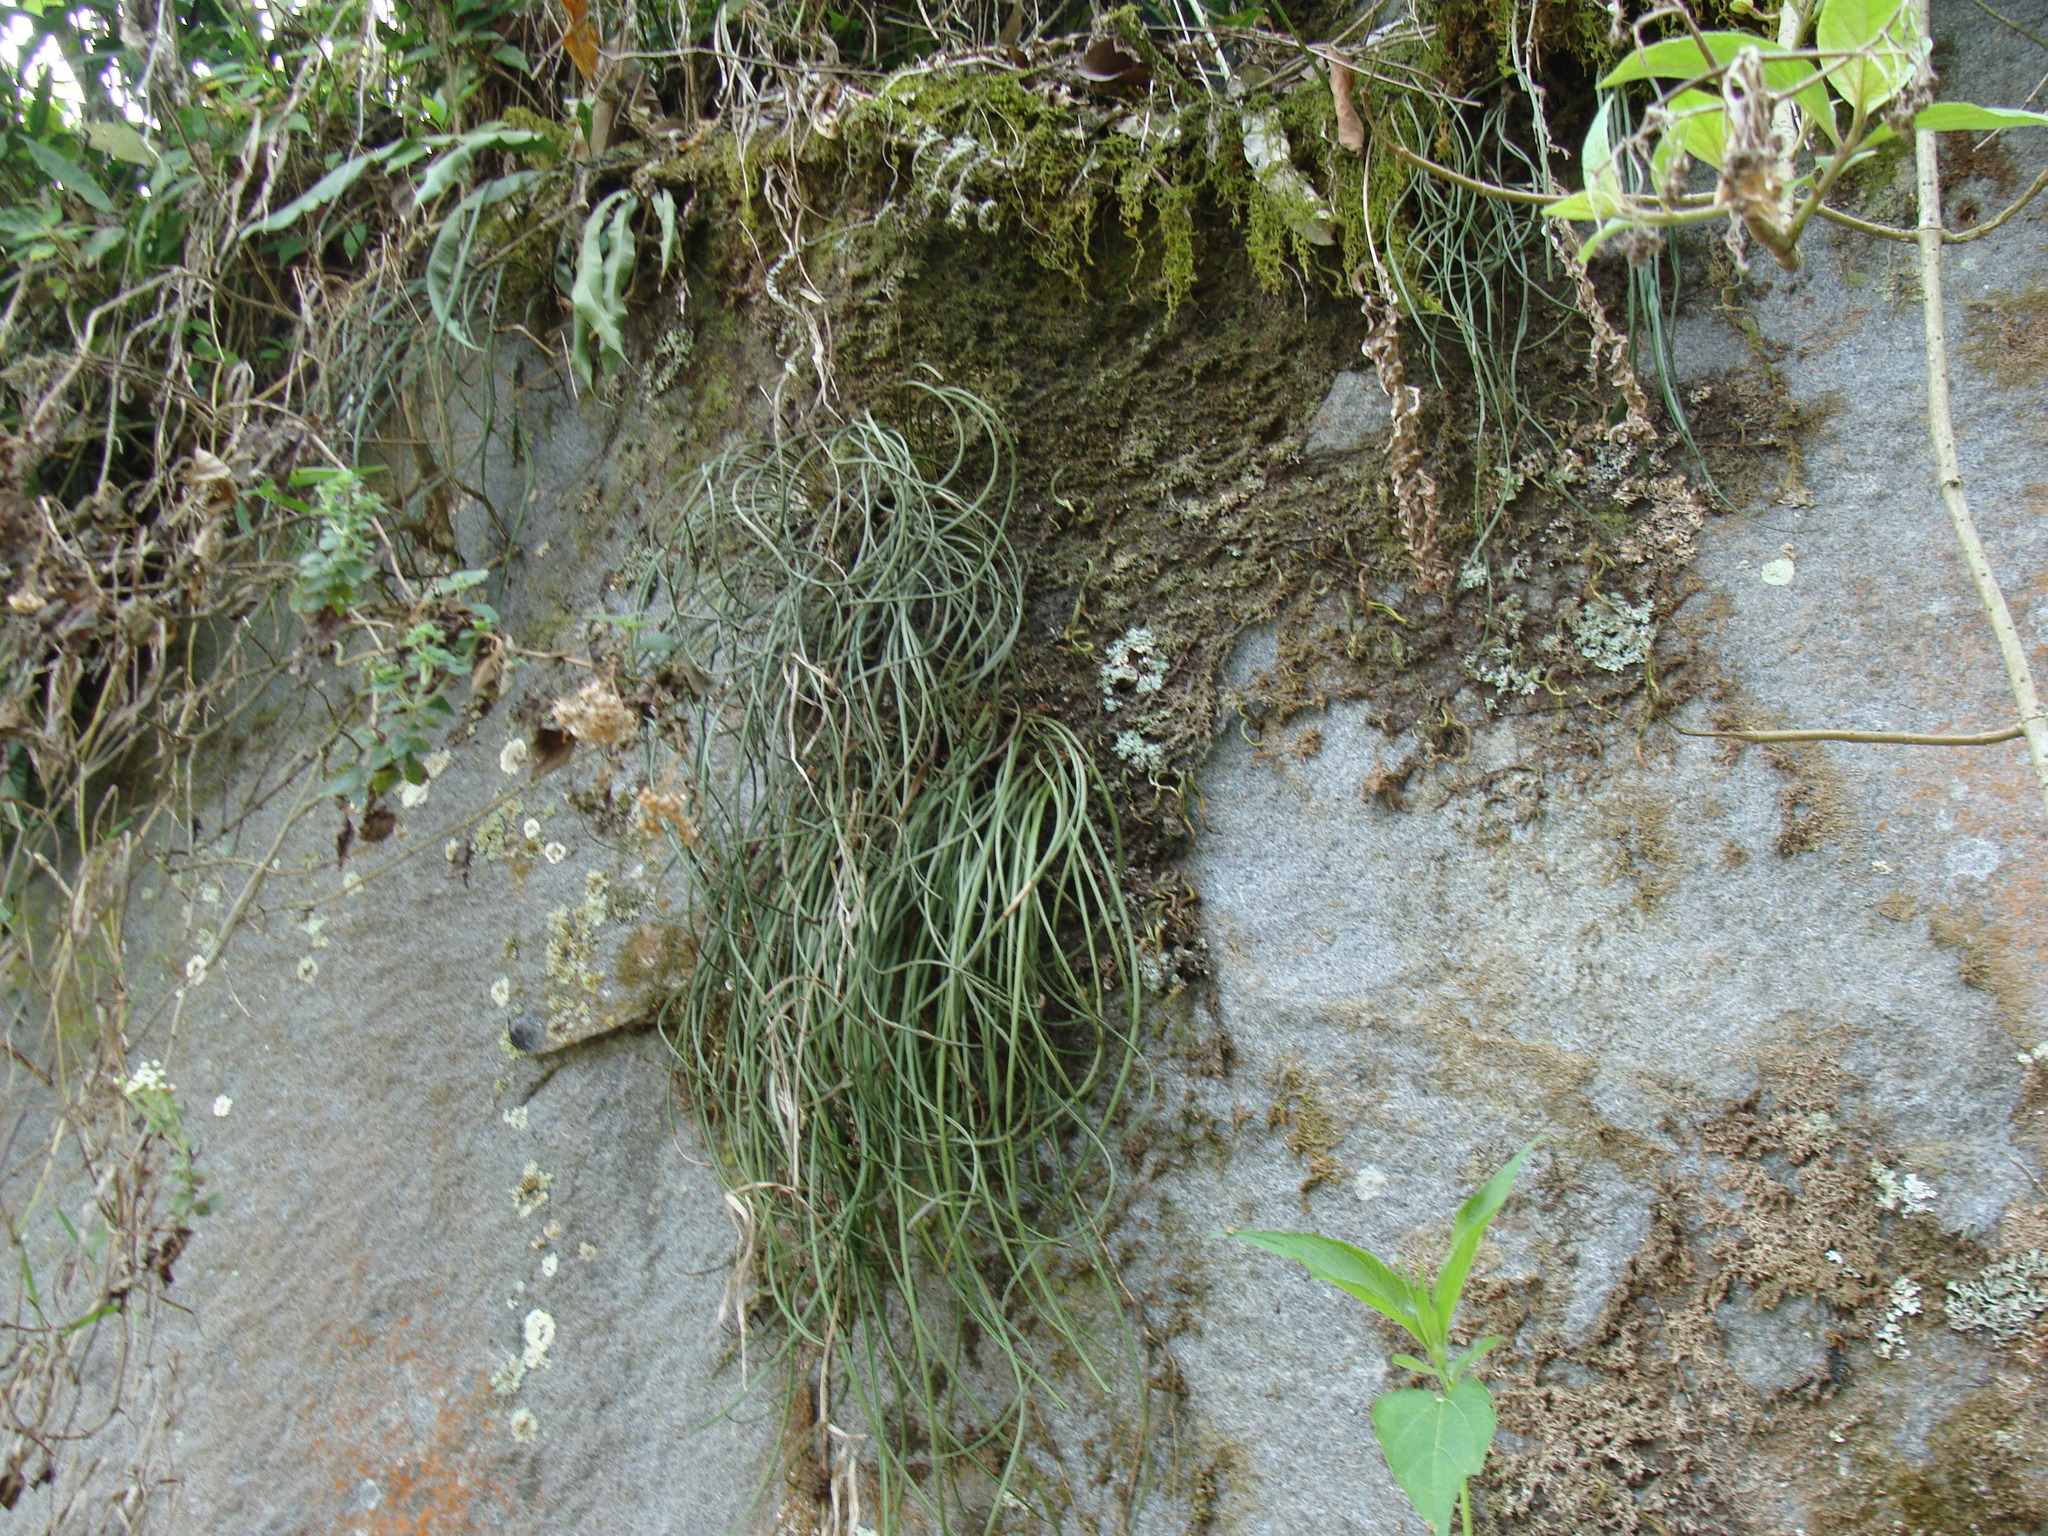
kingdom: Plantae
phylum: Tracheophyta
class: Polypodiopsida
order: Polypodiales
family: Polypodiaceae
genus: Campyloneurum
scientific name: Campyloneurum angustifolium
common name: Narrow-leaf strap fern
